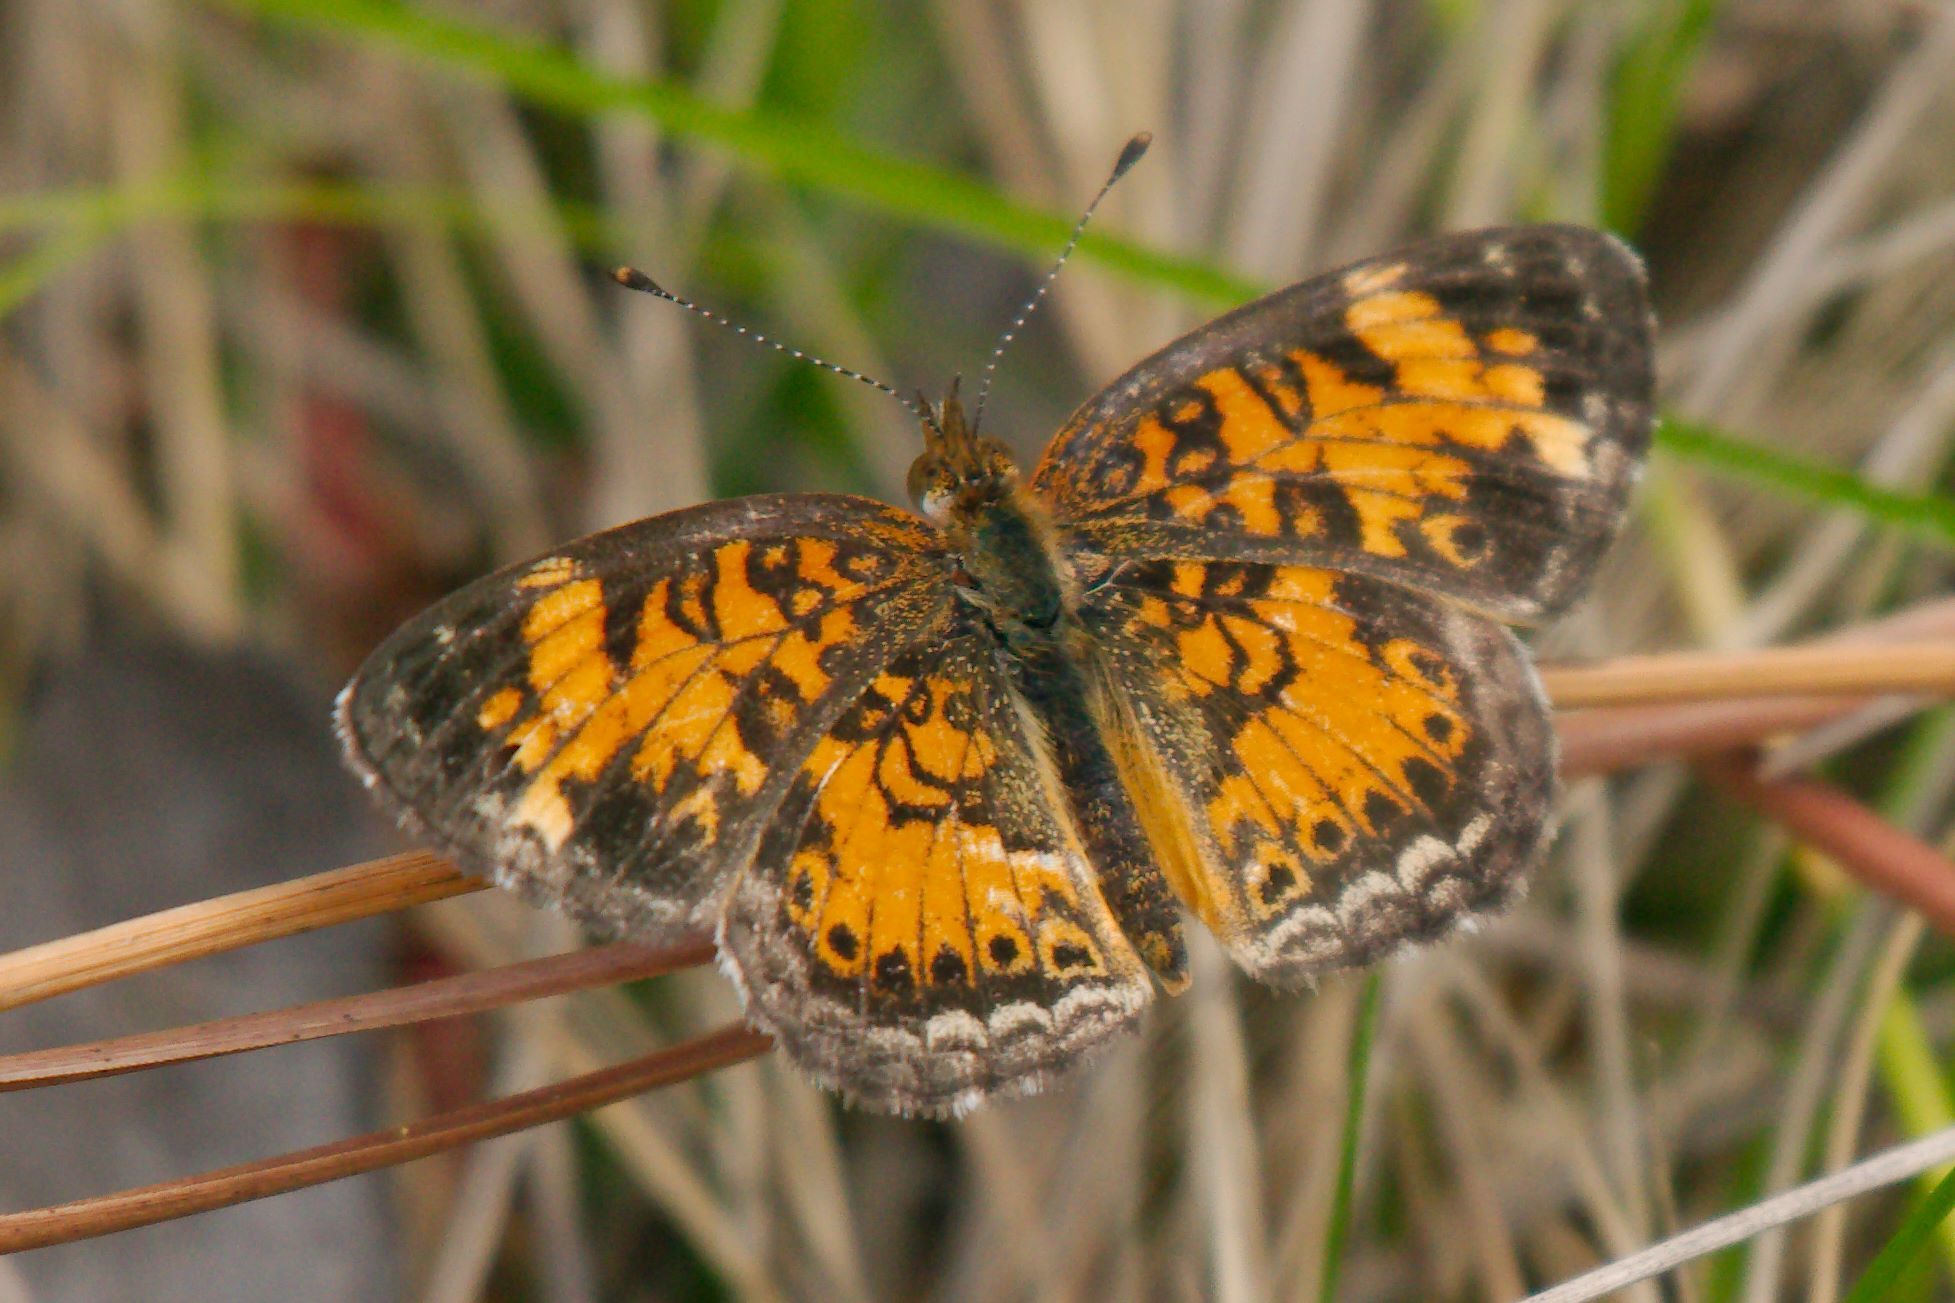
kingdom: Animalia
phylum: Arthropoda
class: Insecta
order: Lepidoptera
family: Nymphalidae
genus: Phyciodes
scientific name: Phyciodes tharos
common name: Pearl crescent
